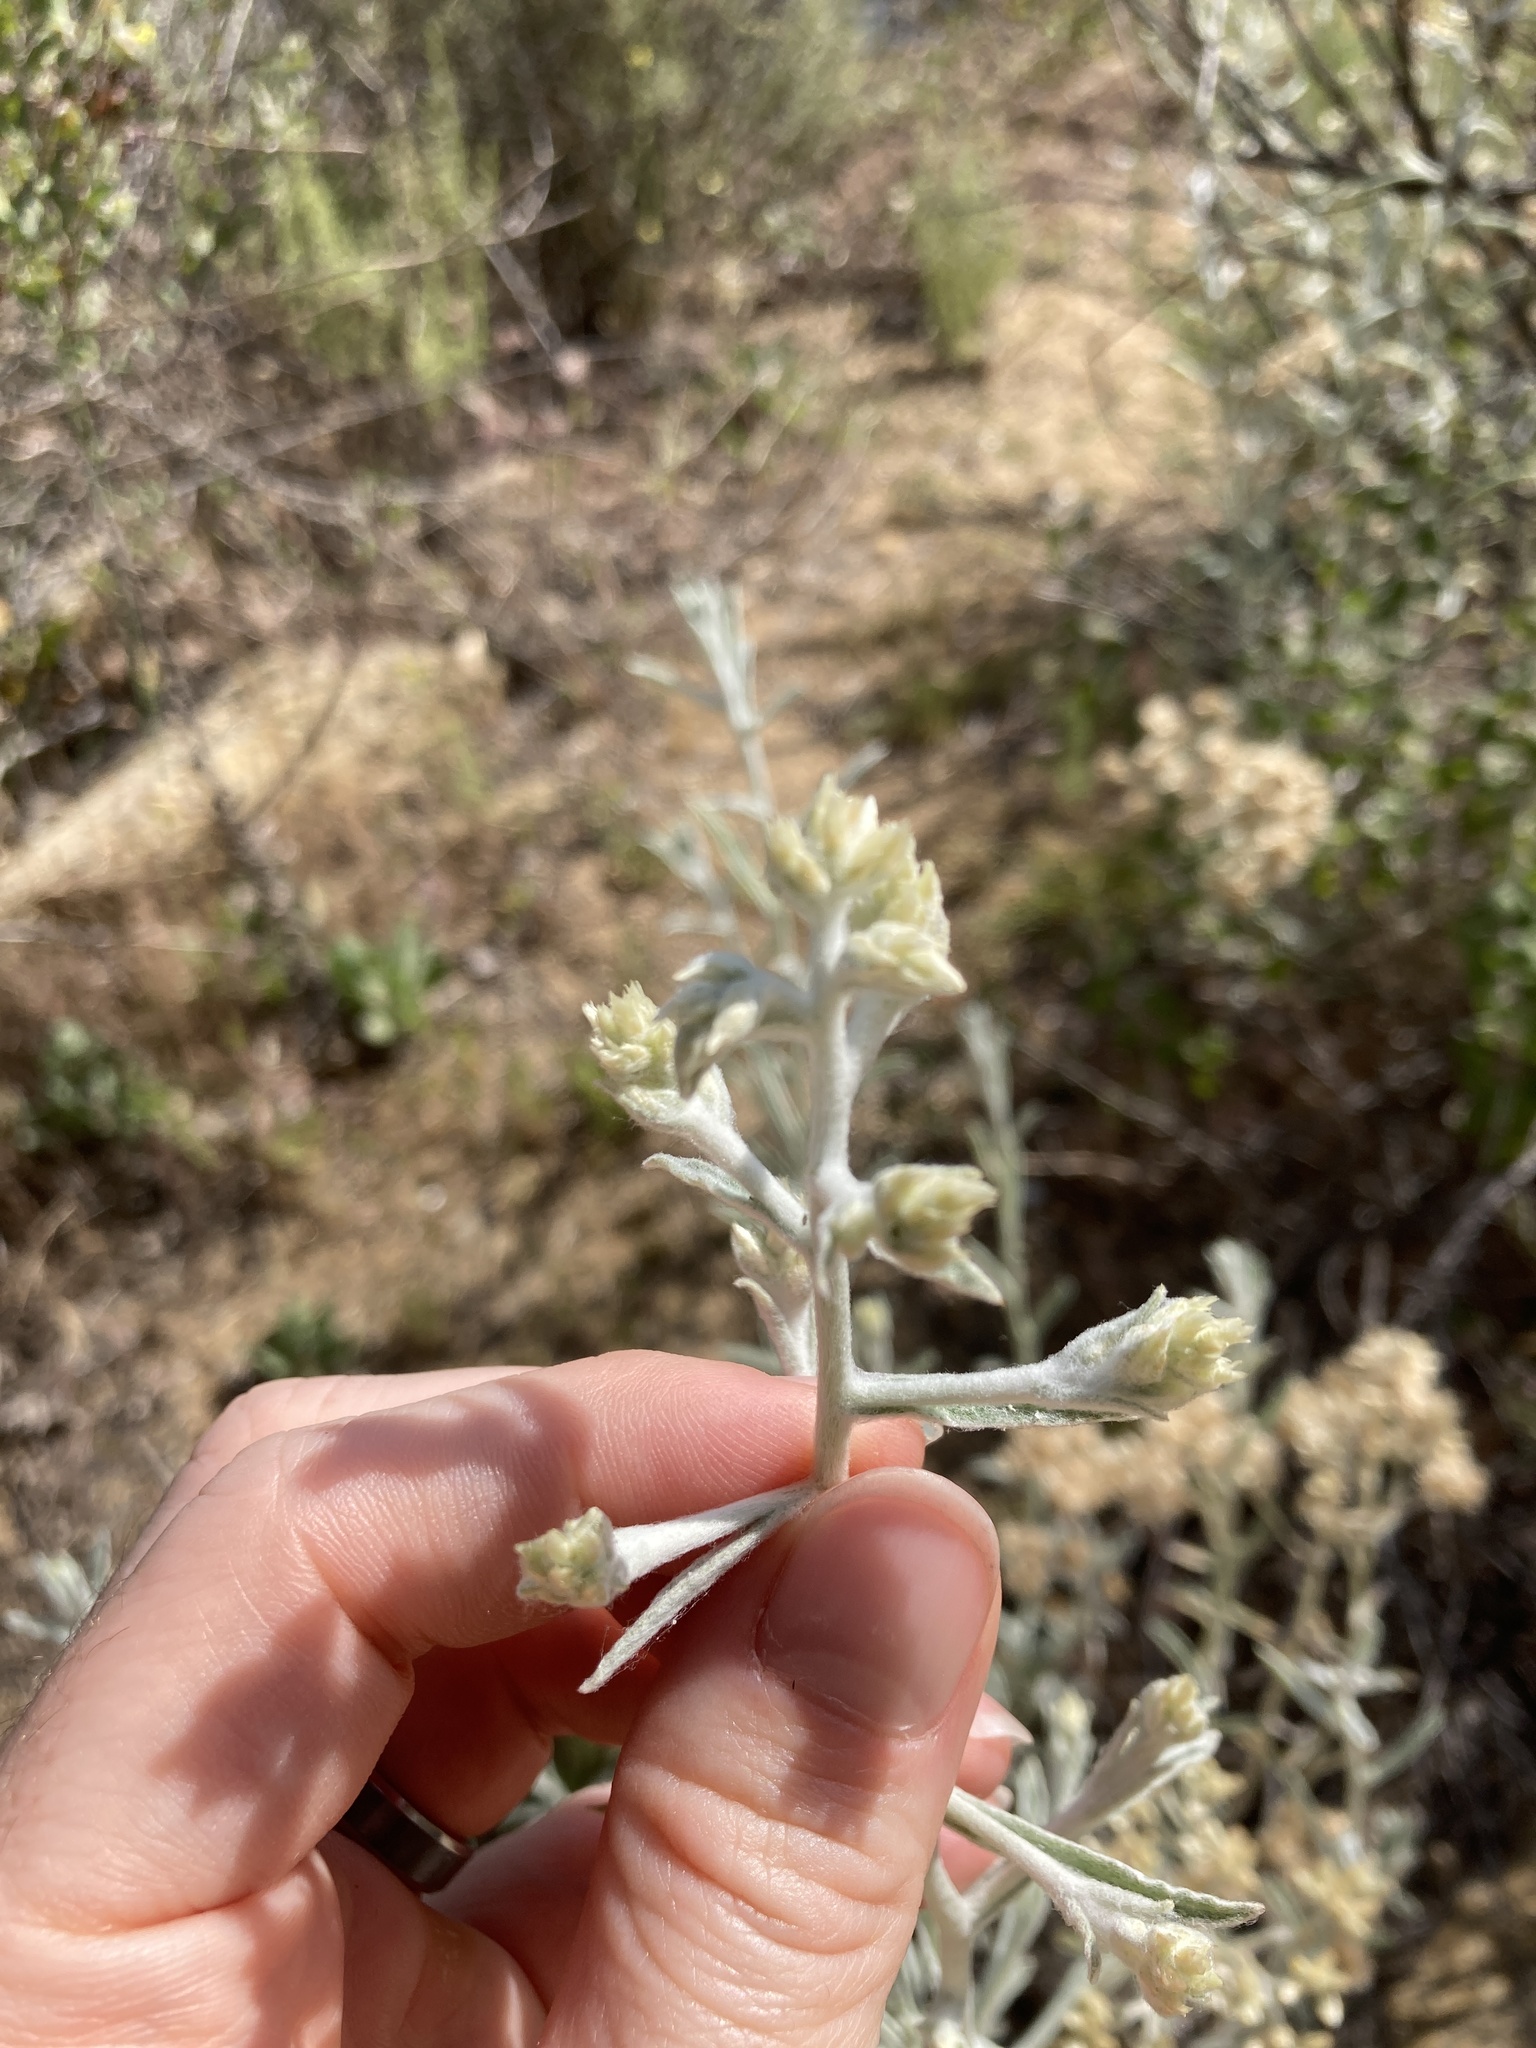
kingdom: Plantae
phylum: Tracheophyta
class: Magnoliopsida
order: Asterales
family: Asteraceae
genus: Pseudognaphalium
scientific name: Pseudognaphalium canescens
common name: Wright's rabbit-tobacco
